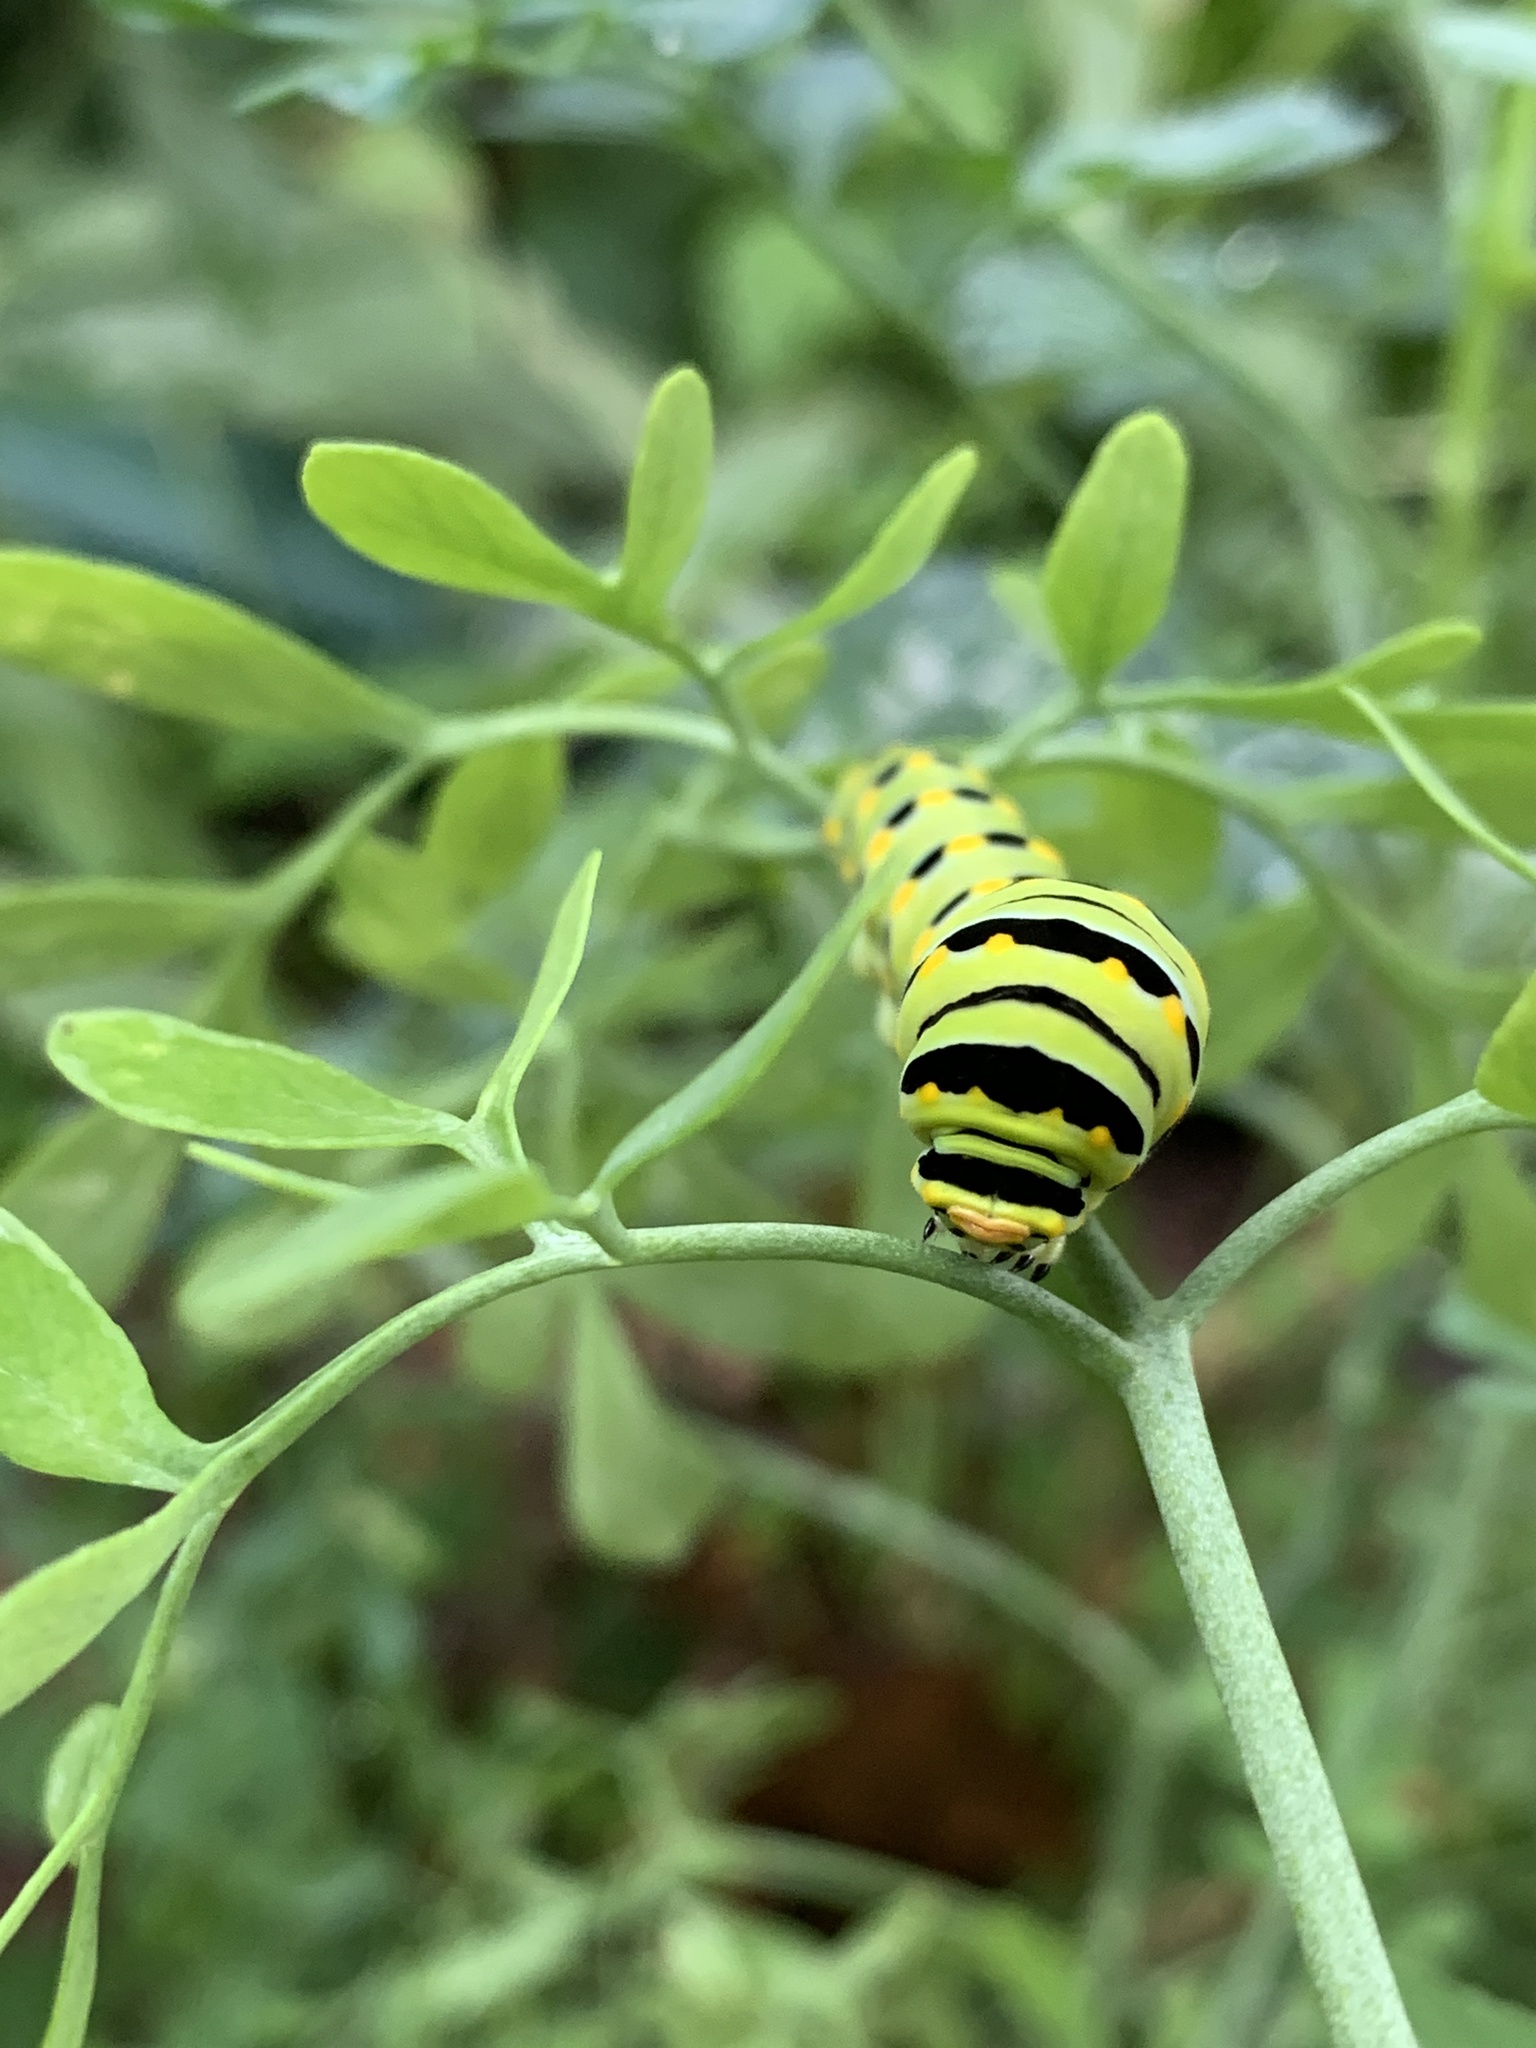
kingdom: Animalia
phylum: Arthropoda
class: Insecta
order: Lepidoptera
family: Papilionidae
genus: Papilio
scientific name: Papilio polyxenes
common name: Black swallowtail
